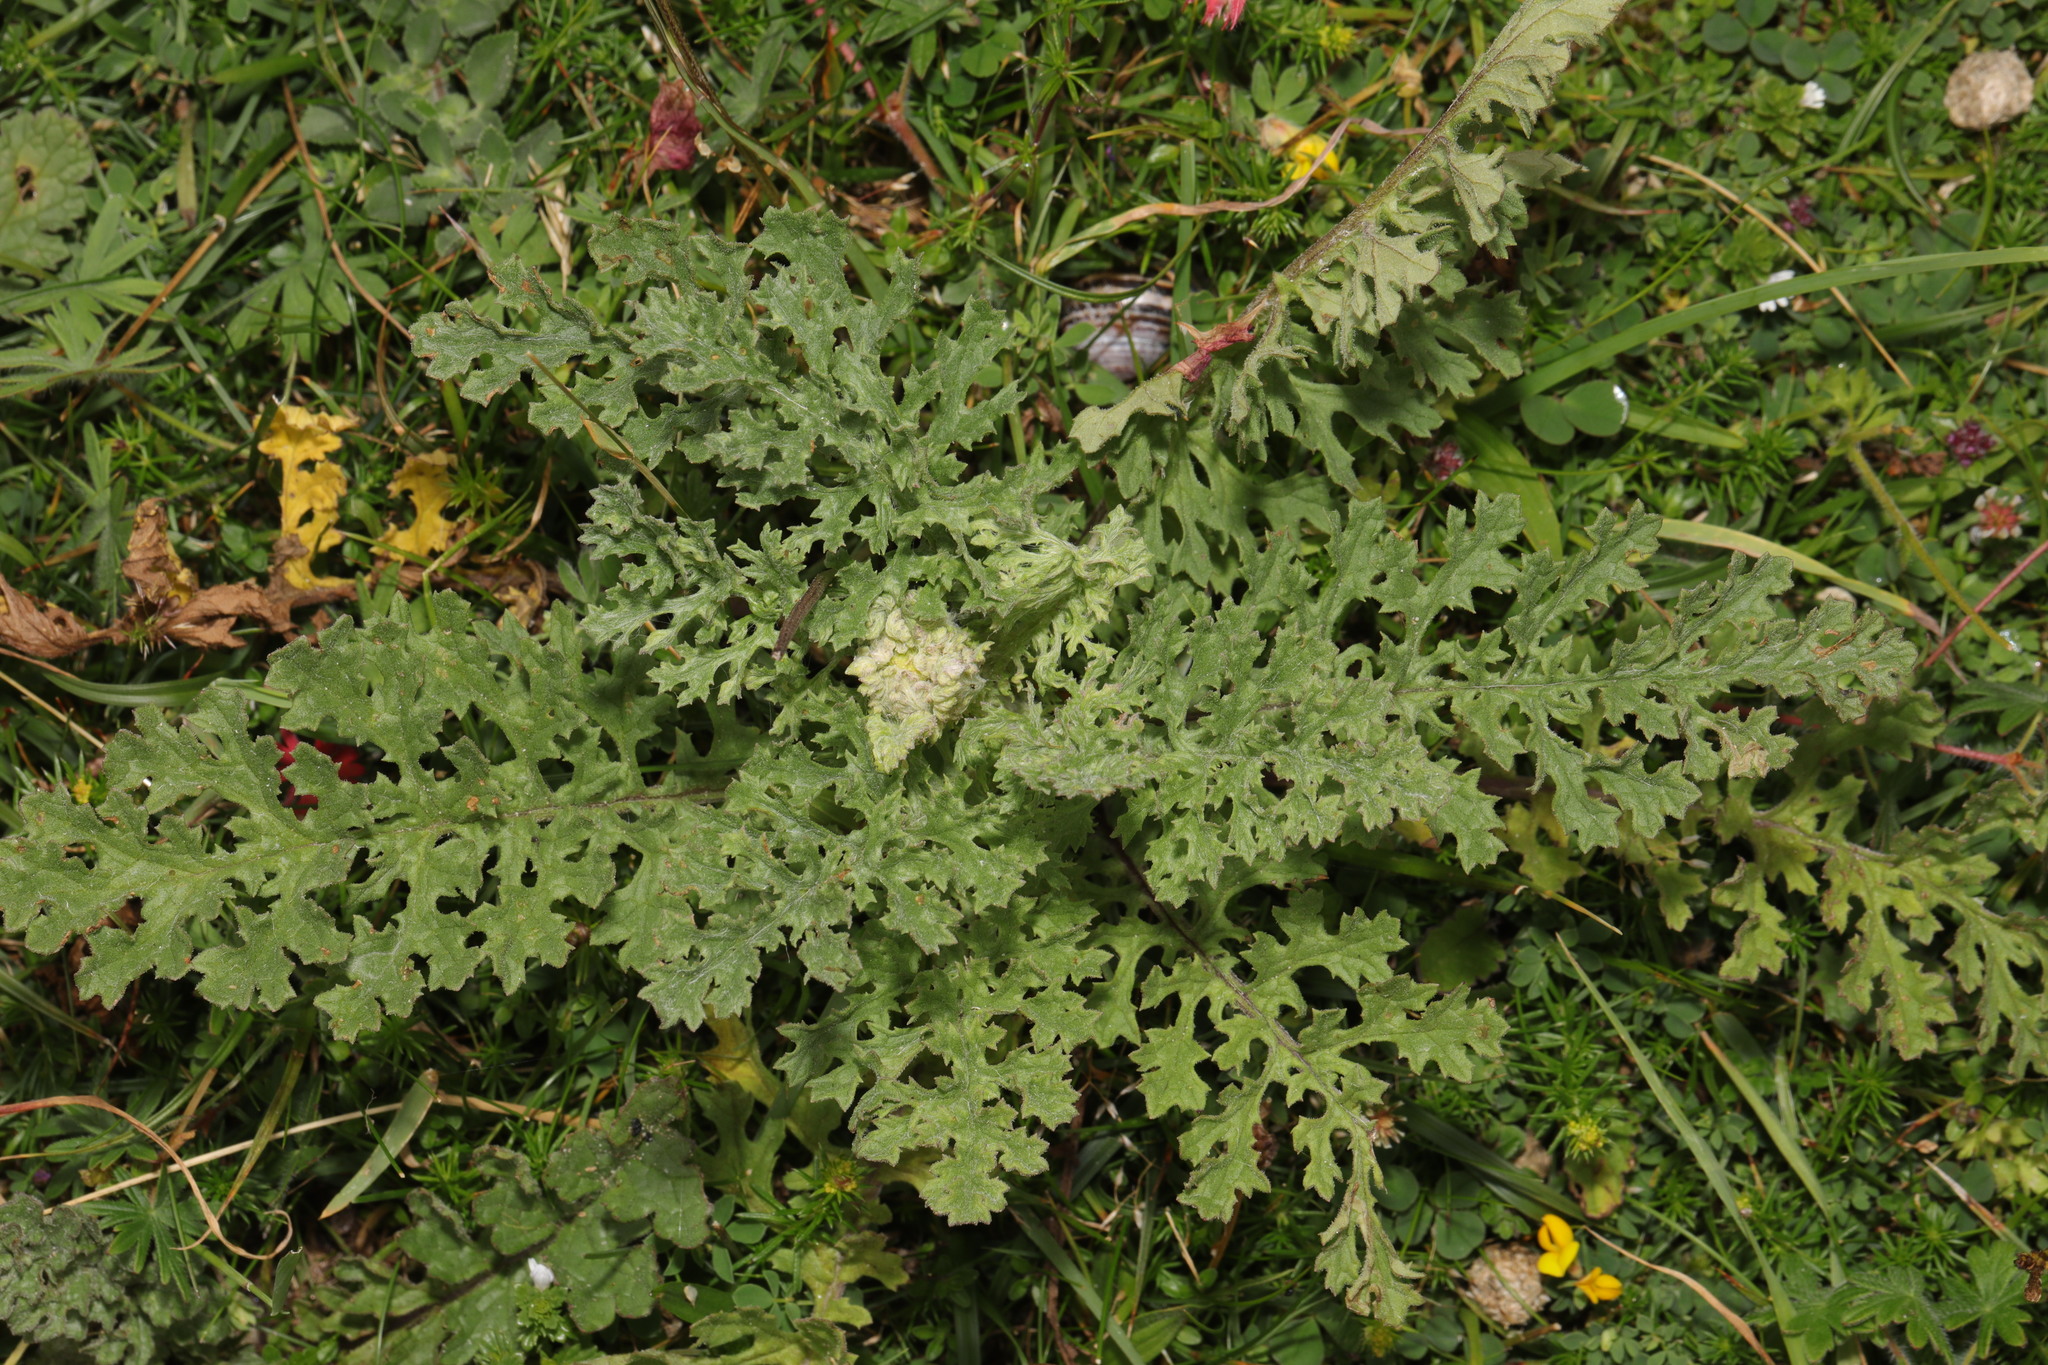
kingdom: Plantae
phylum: Tracheophyta
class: Magnoliopsida
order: Asterales
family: Asteraceae
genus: Jacobaea
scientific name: Jacobaea vulgaris
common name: Stinking willie
